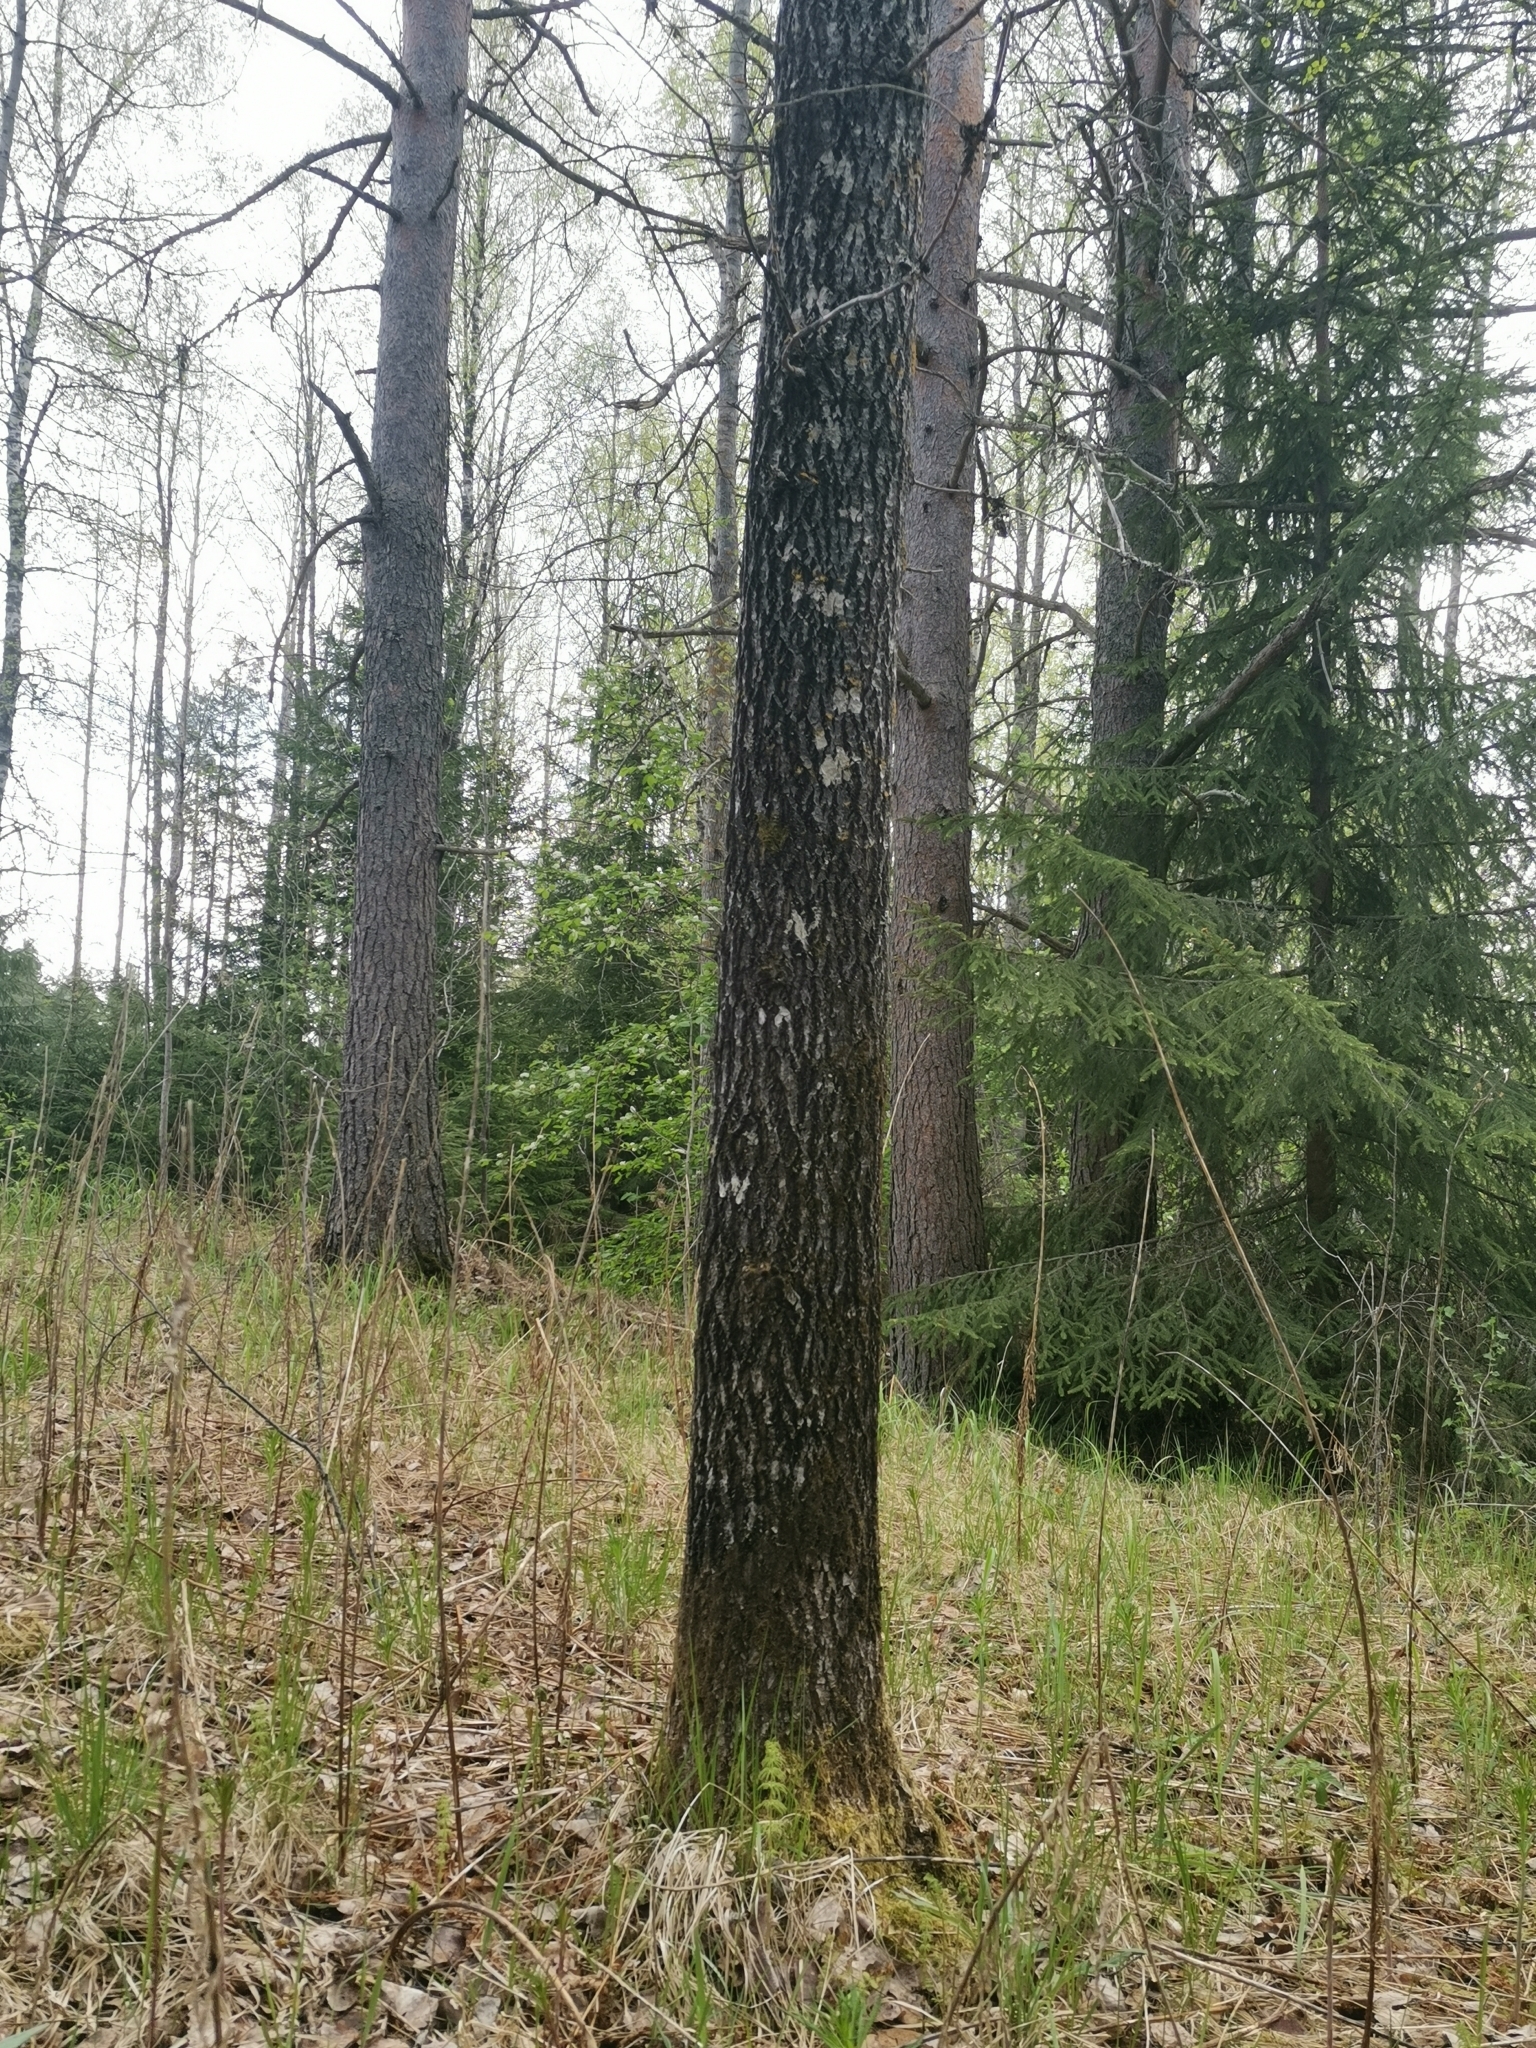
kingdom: Animalia
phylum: Chordata
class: Mammalia
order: Rodentia
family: Sciuridae
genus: Pteromys
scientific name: Pteromys volans
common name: Siberian flying squirrel
